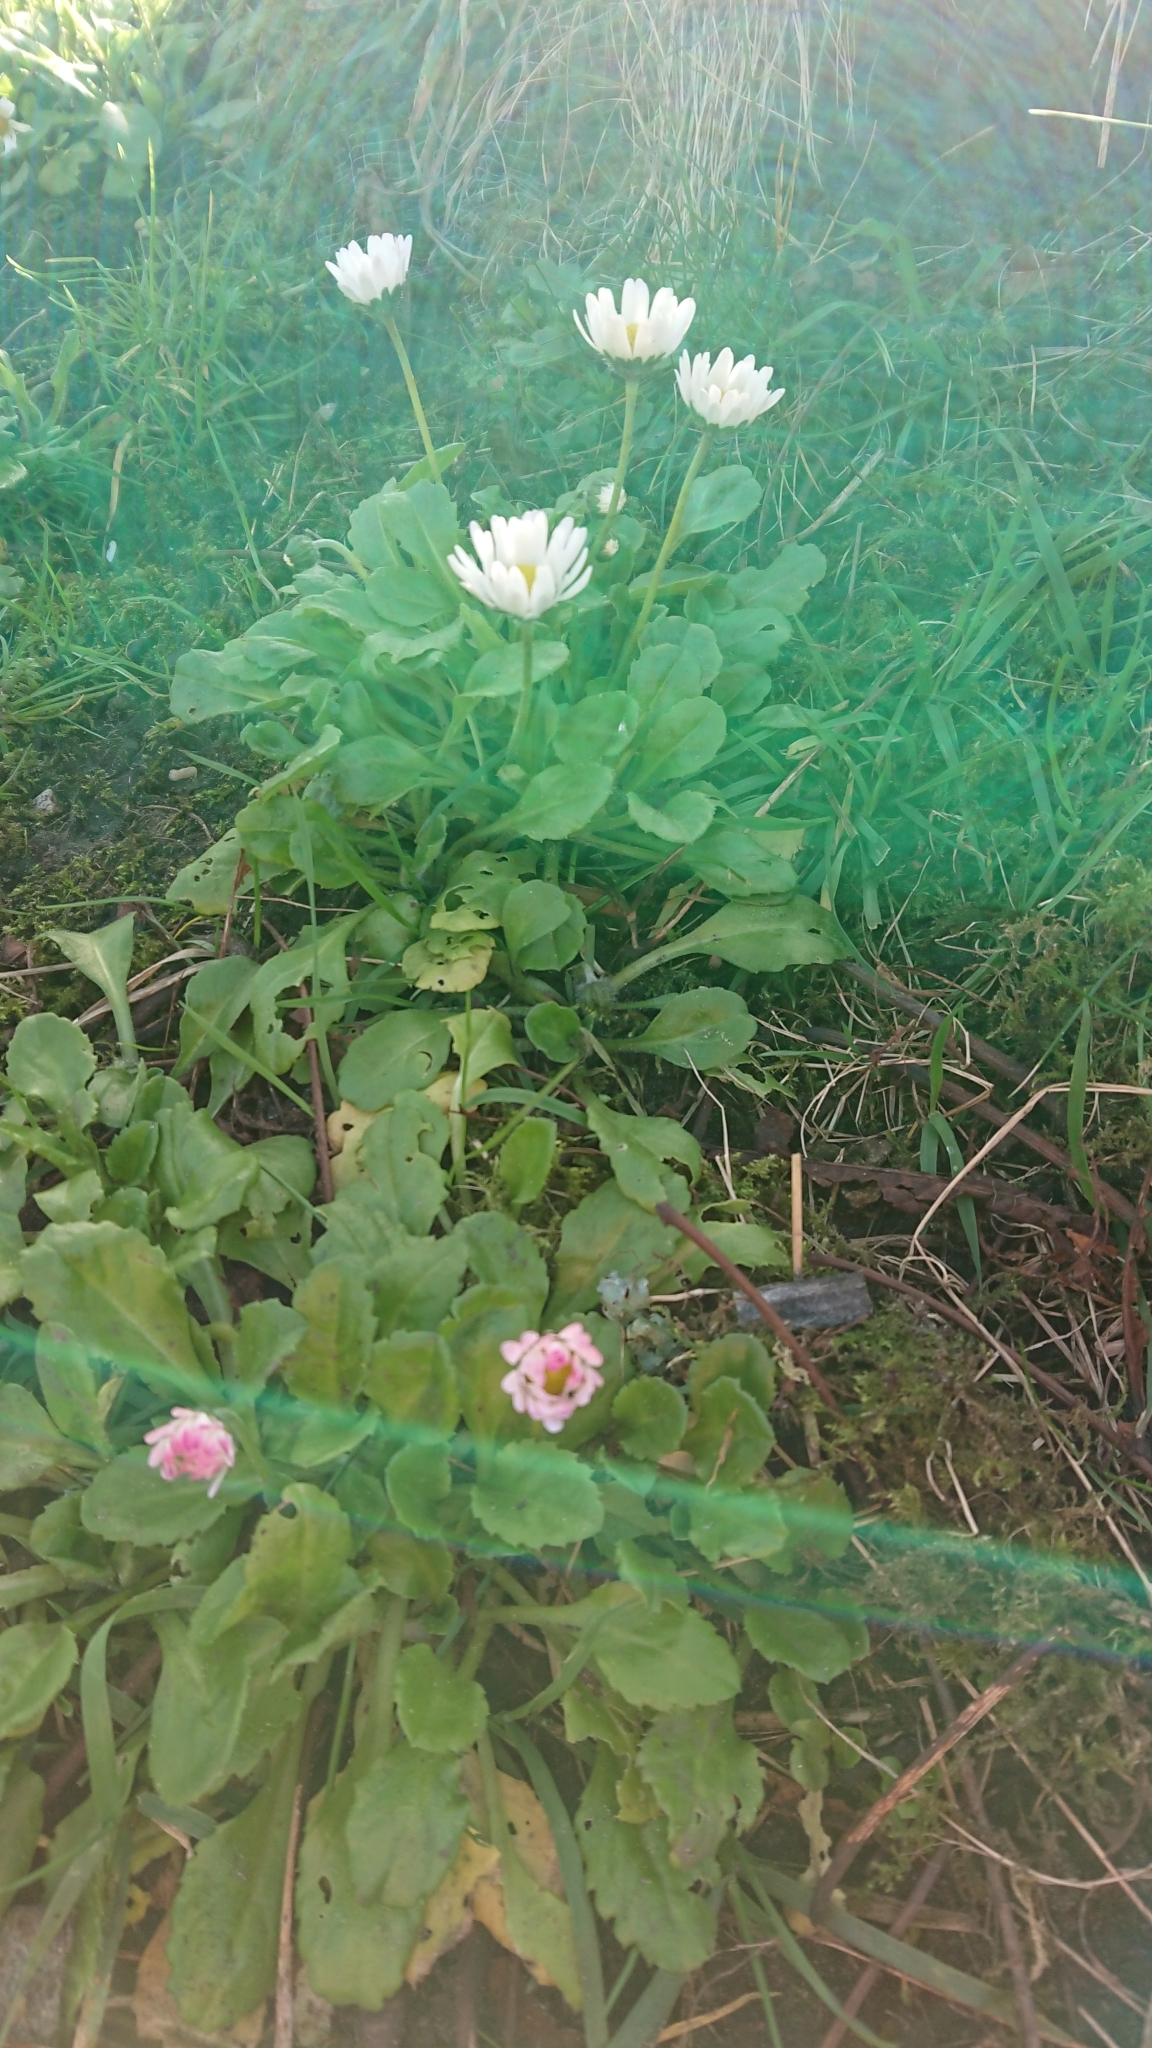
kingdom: Plantae
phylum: Tracheophyta
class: Magnoliopsida
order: Asterales
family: Asteraceae
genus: Bellis
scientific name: Bellis perennis
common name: Lawndaisy
